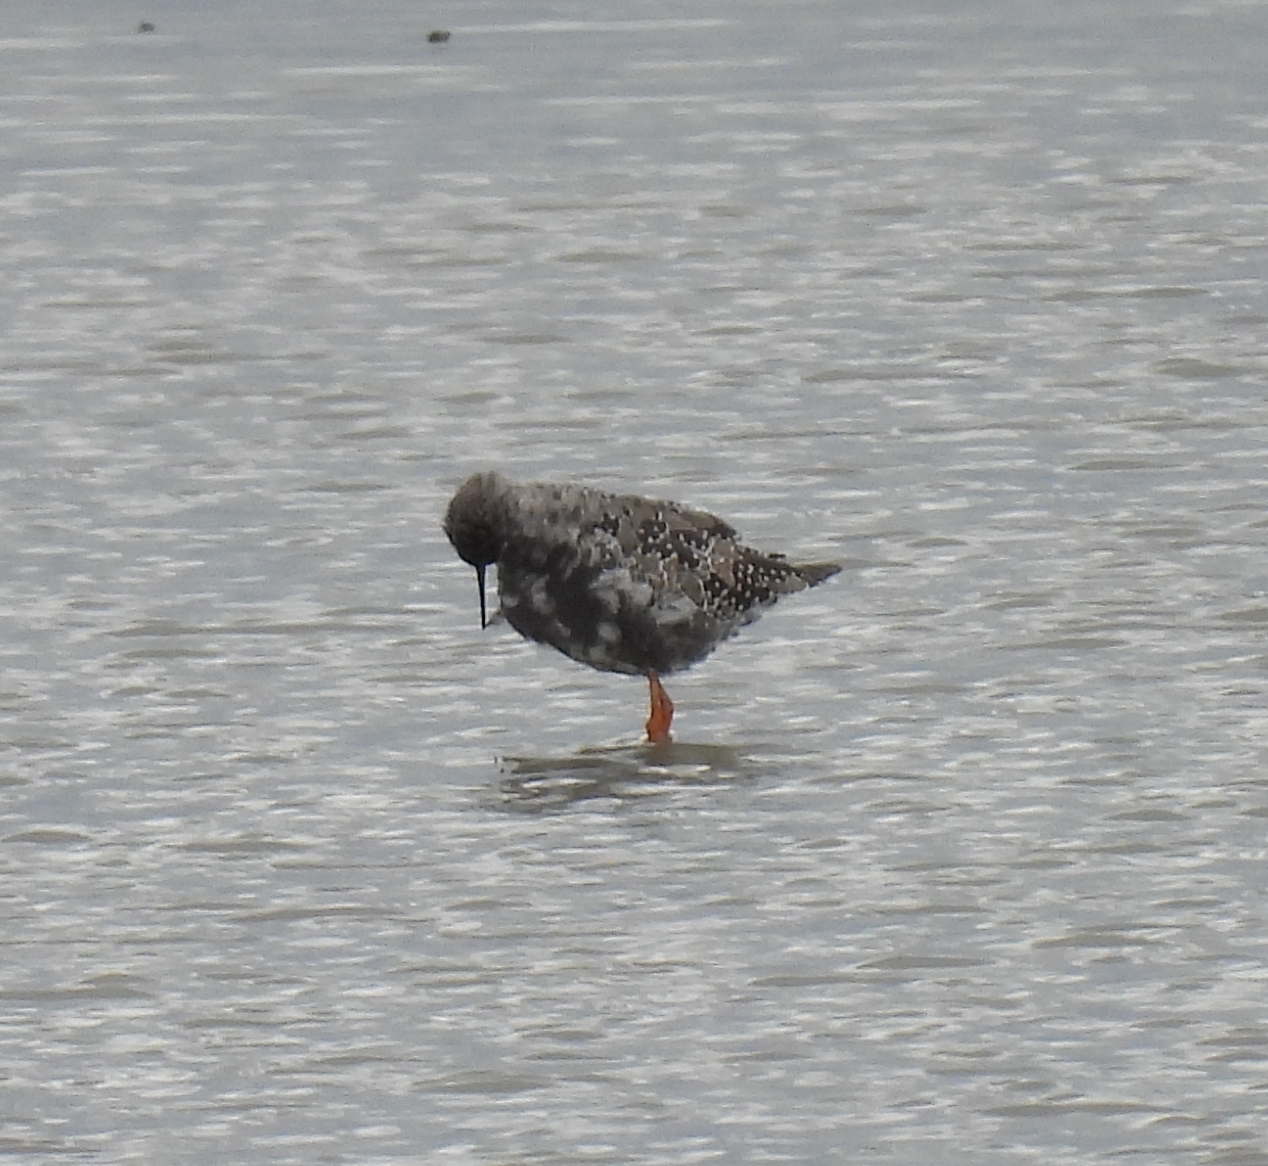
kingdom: Animalia
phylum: Chordata
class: Aves
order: Charadriiformes
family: Scolopacidae
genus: Tringa
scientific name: Tringa erythropus
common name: Spotted redshank
